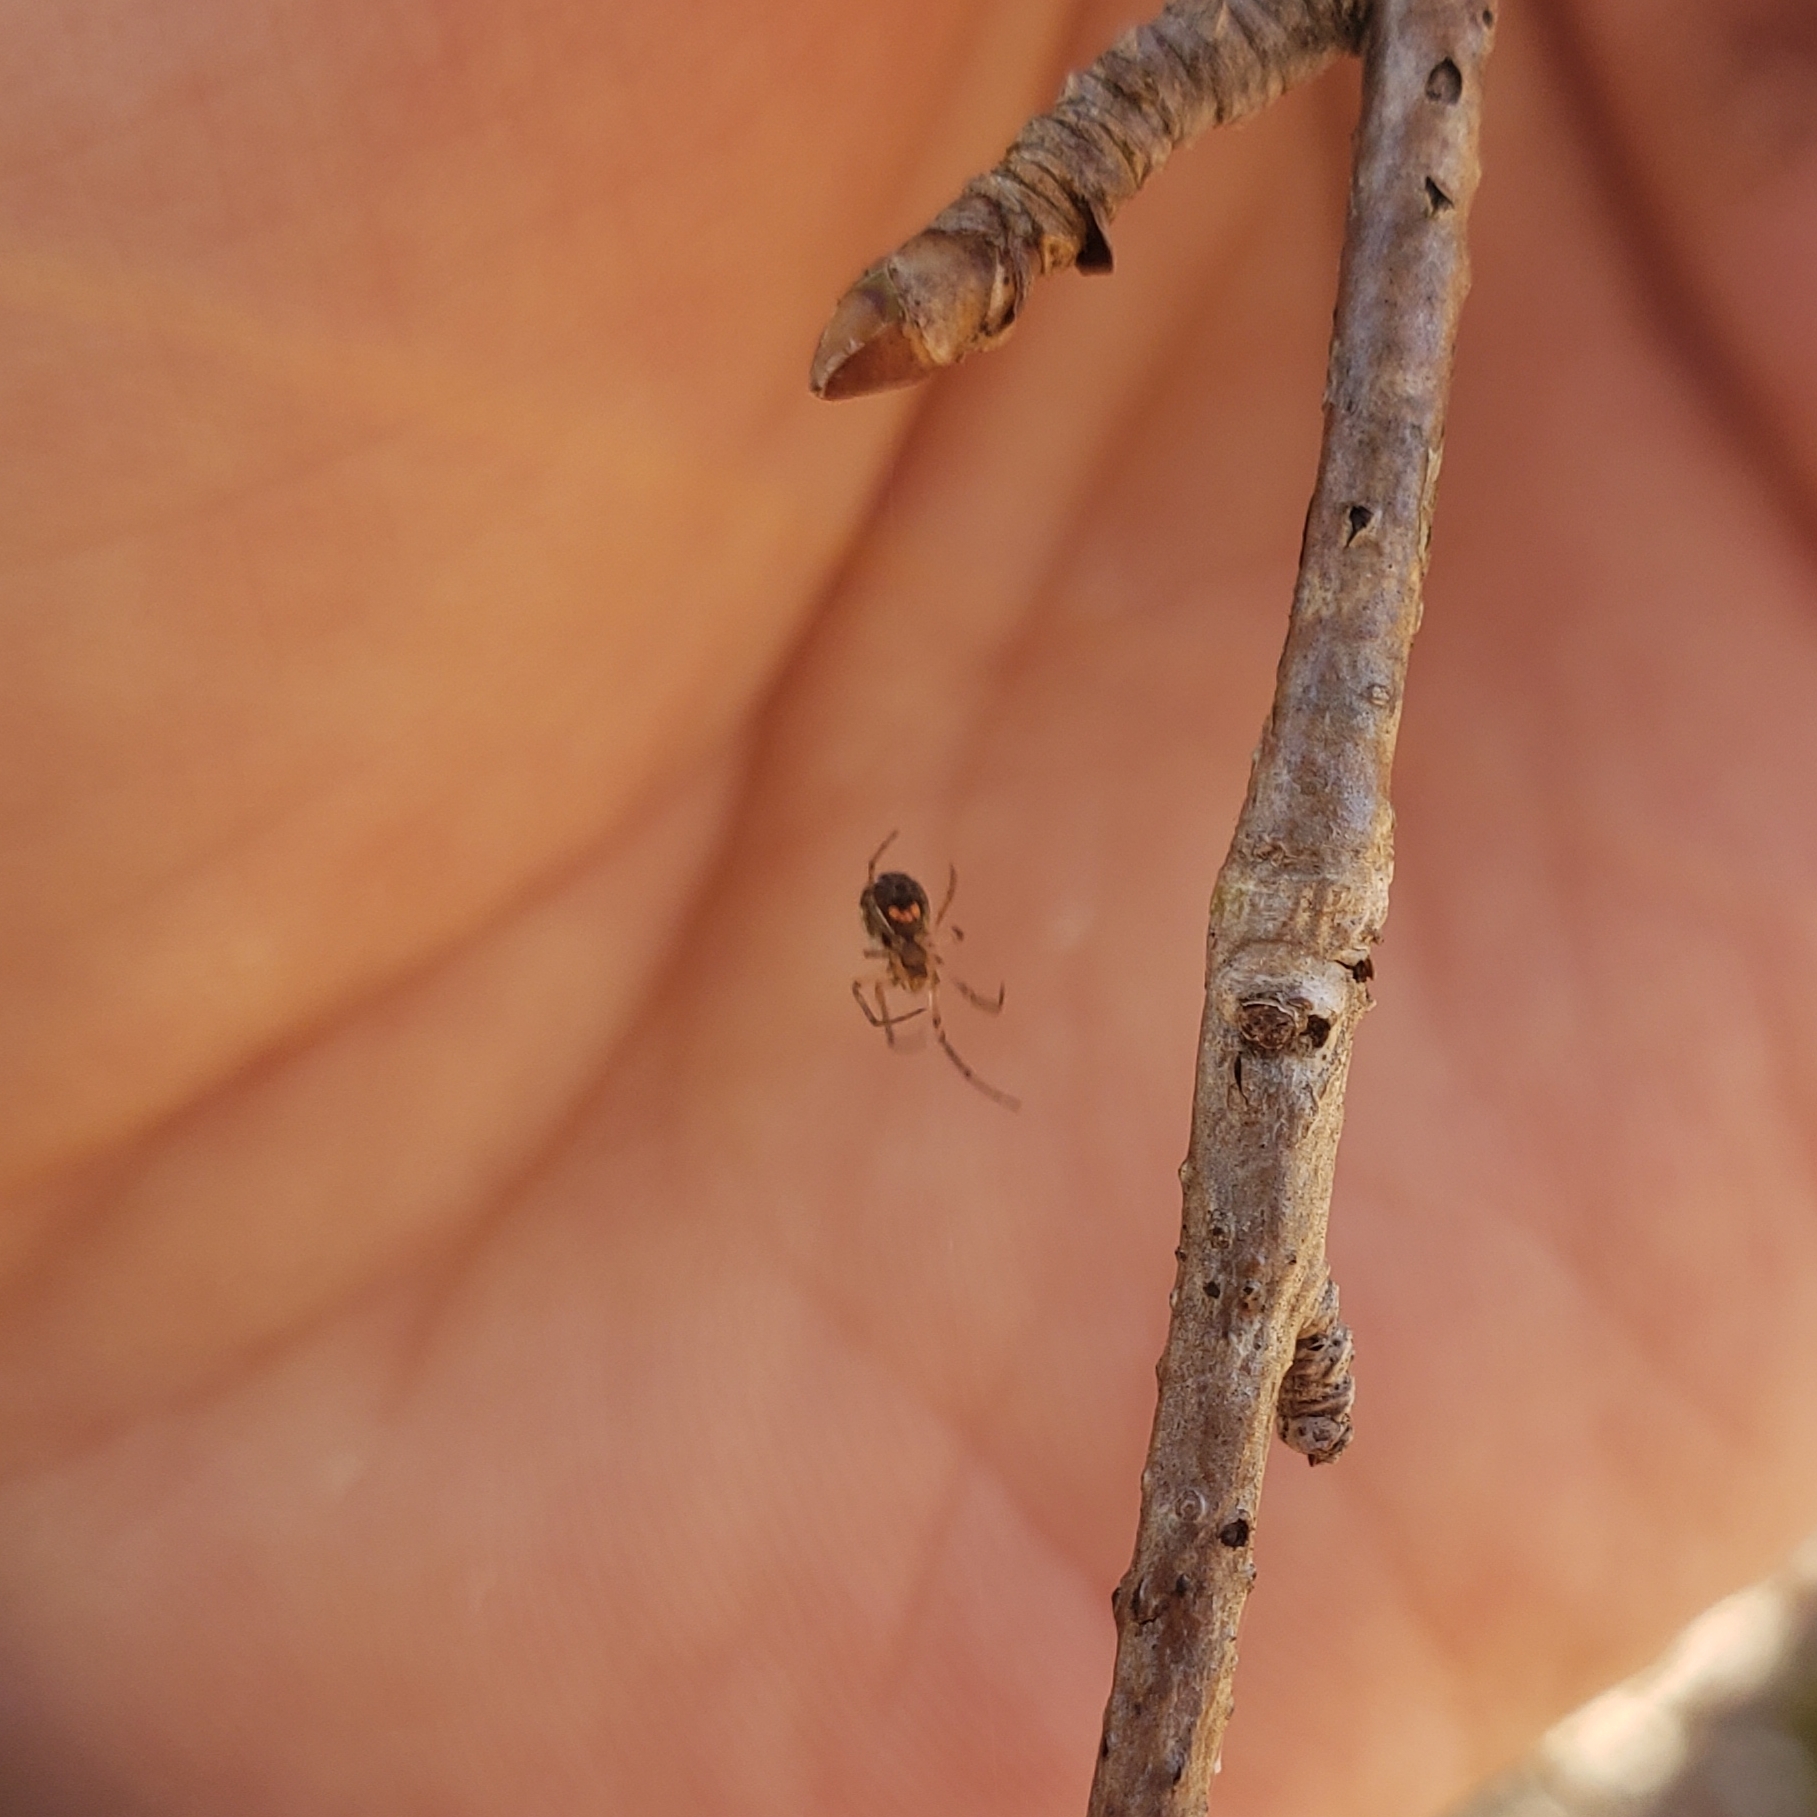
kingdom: Animalia
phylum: Arthropoda
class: Arachnida
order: Araneae
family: Tetragnathidae
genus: Leucauge
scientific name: Leucauge venusta
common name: Longjawed orb weavers
